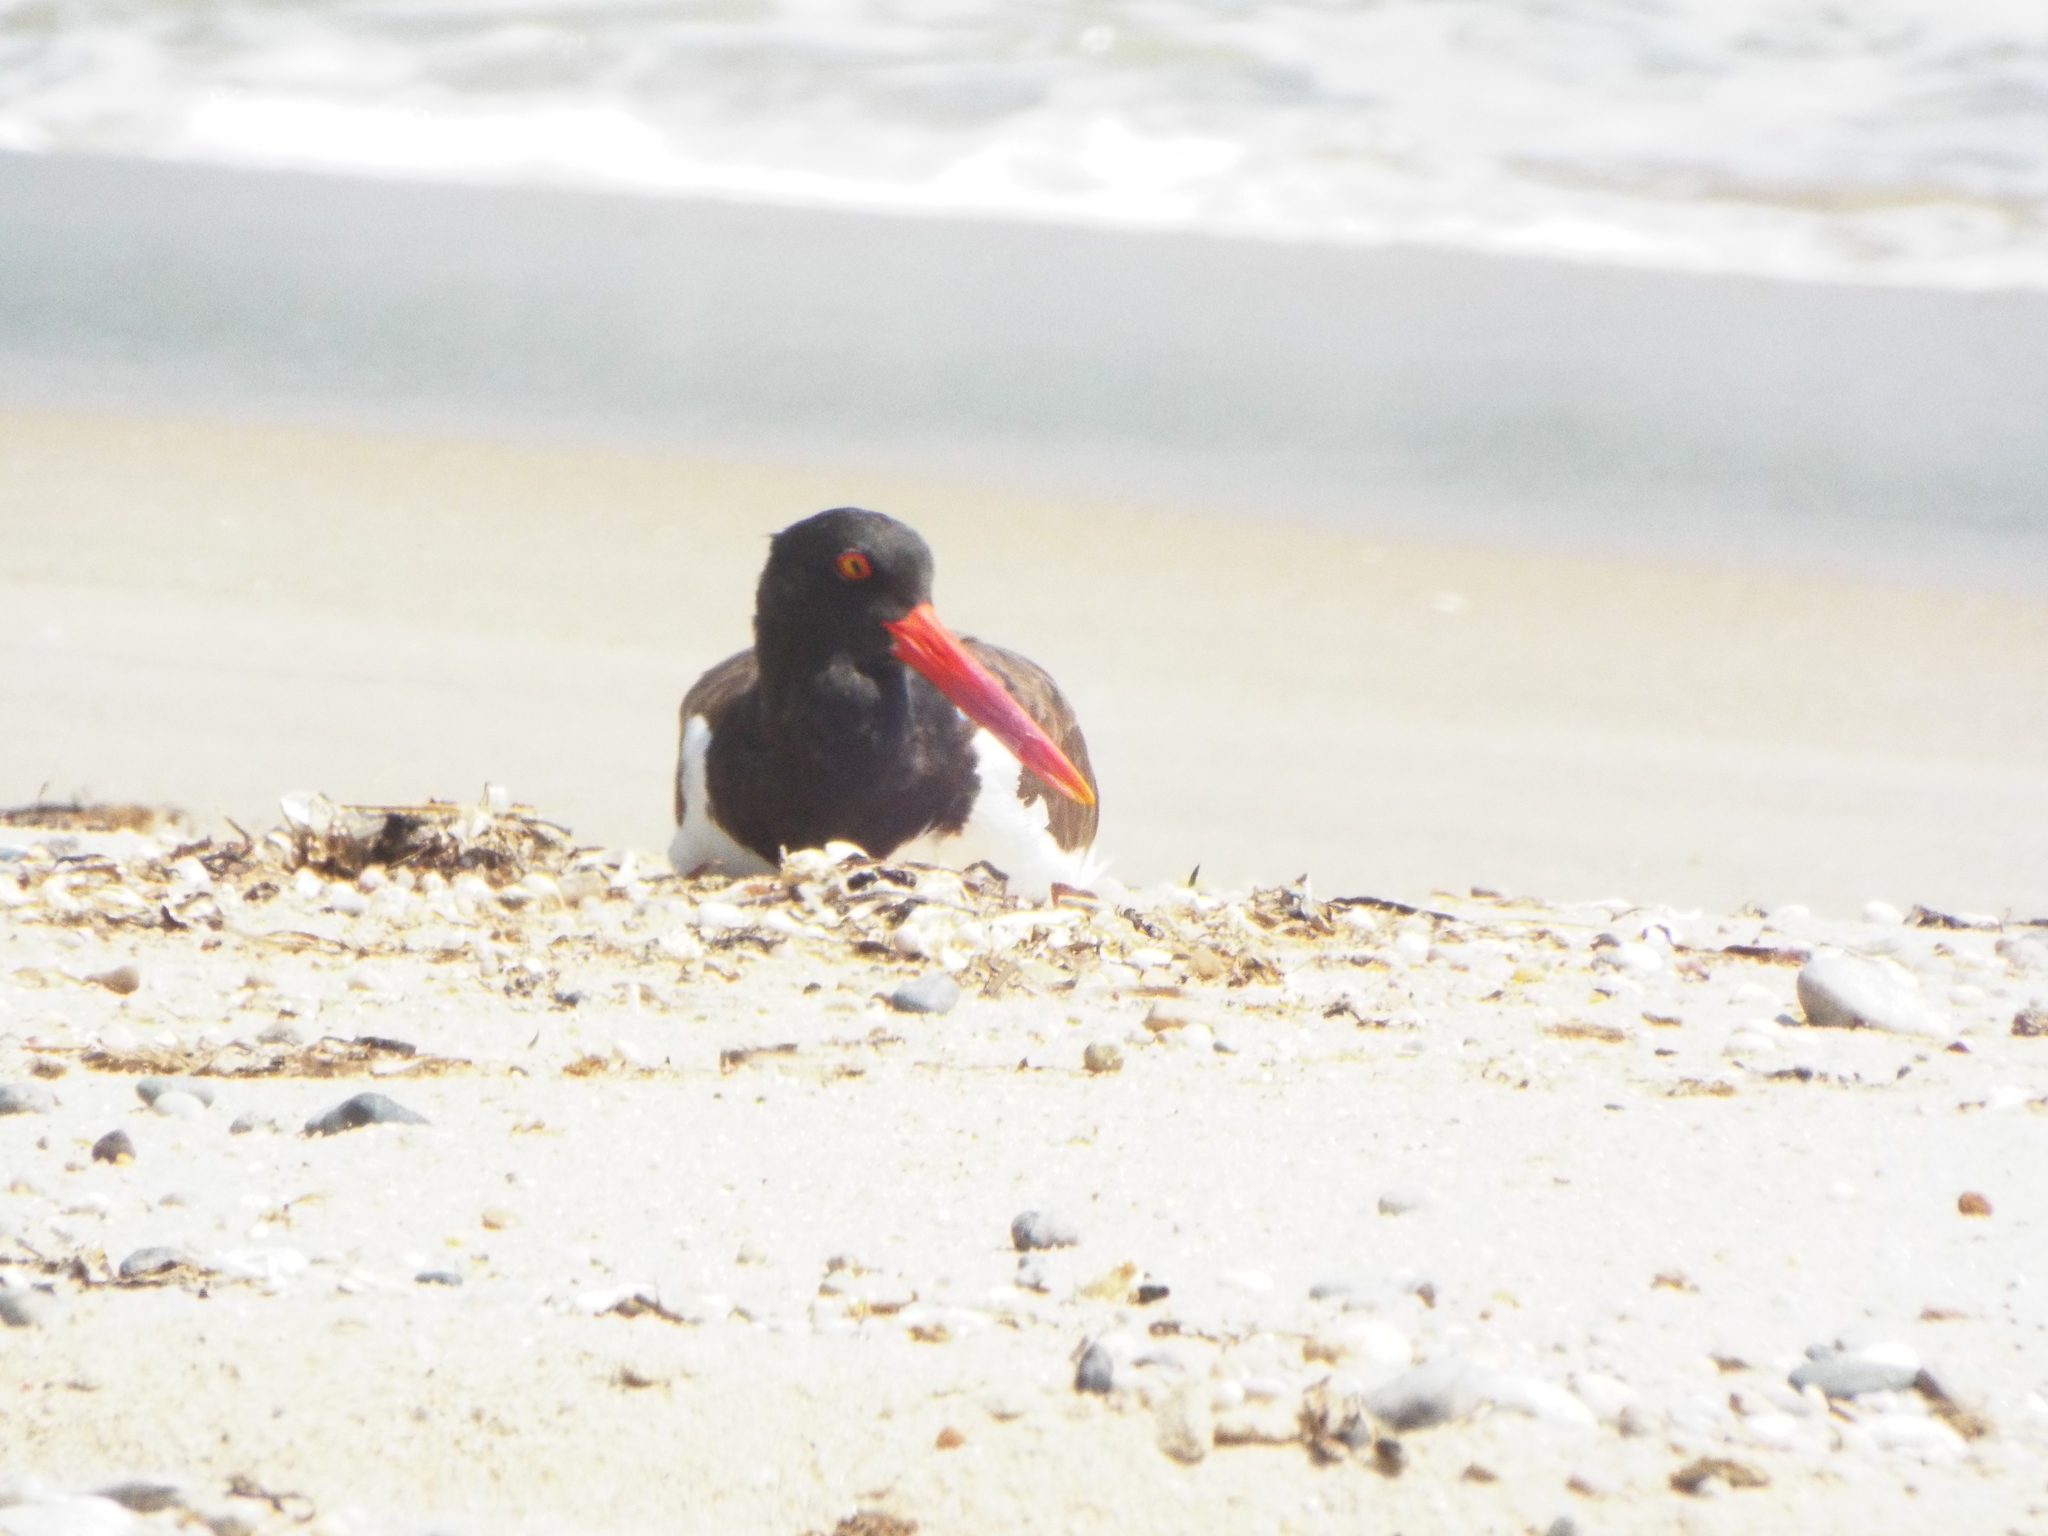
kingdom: Animalia
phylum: Chordata
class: Aves
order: Charadriiformes
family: Haematopodidae
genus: Haematopus
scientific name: Haematopus palliatus
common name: American oystercatcher
